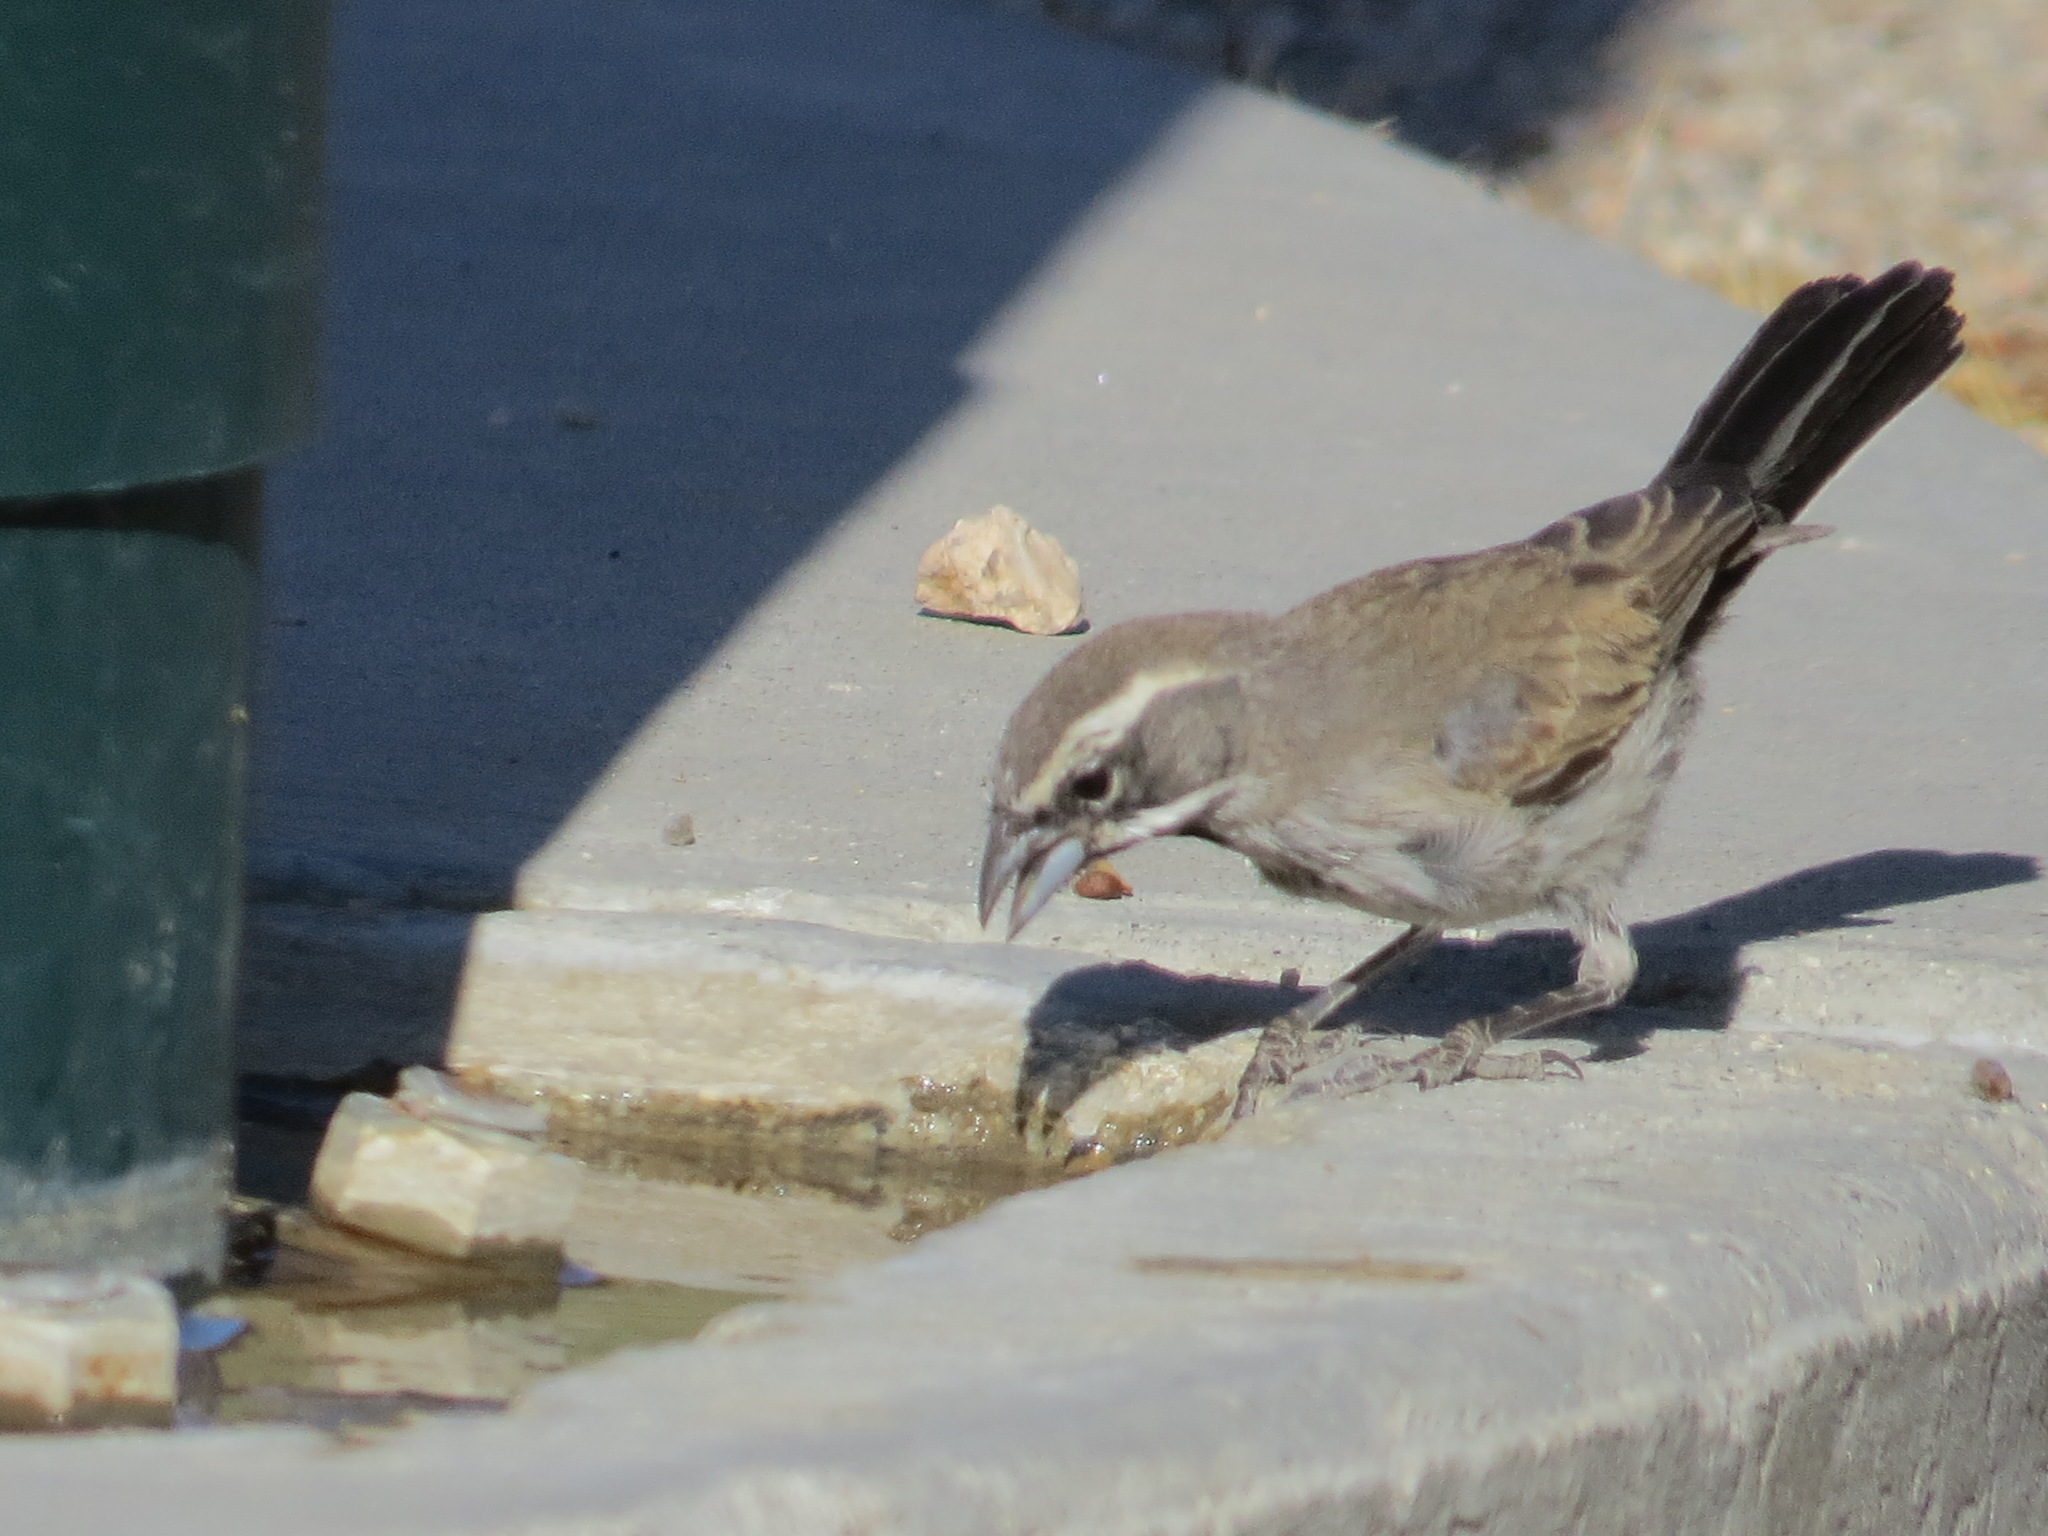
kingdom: Animalia
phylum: Chordata
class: Aves
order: Passeriformes
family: Passerellidae
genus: Amphispiza
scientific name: Amphispiza bilineata
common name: Black-throated sparrow
